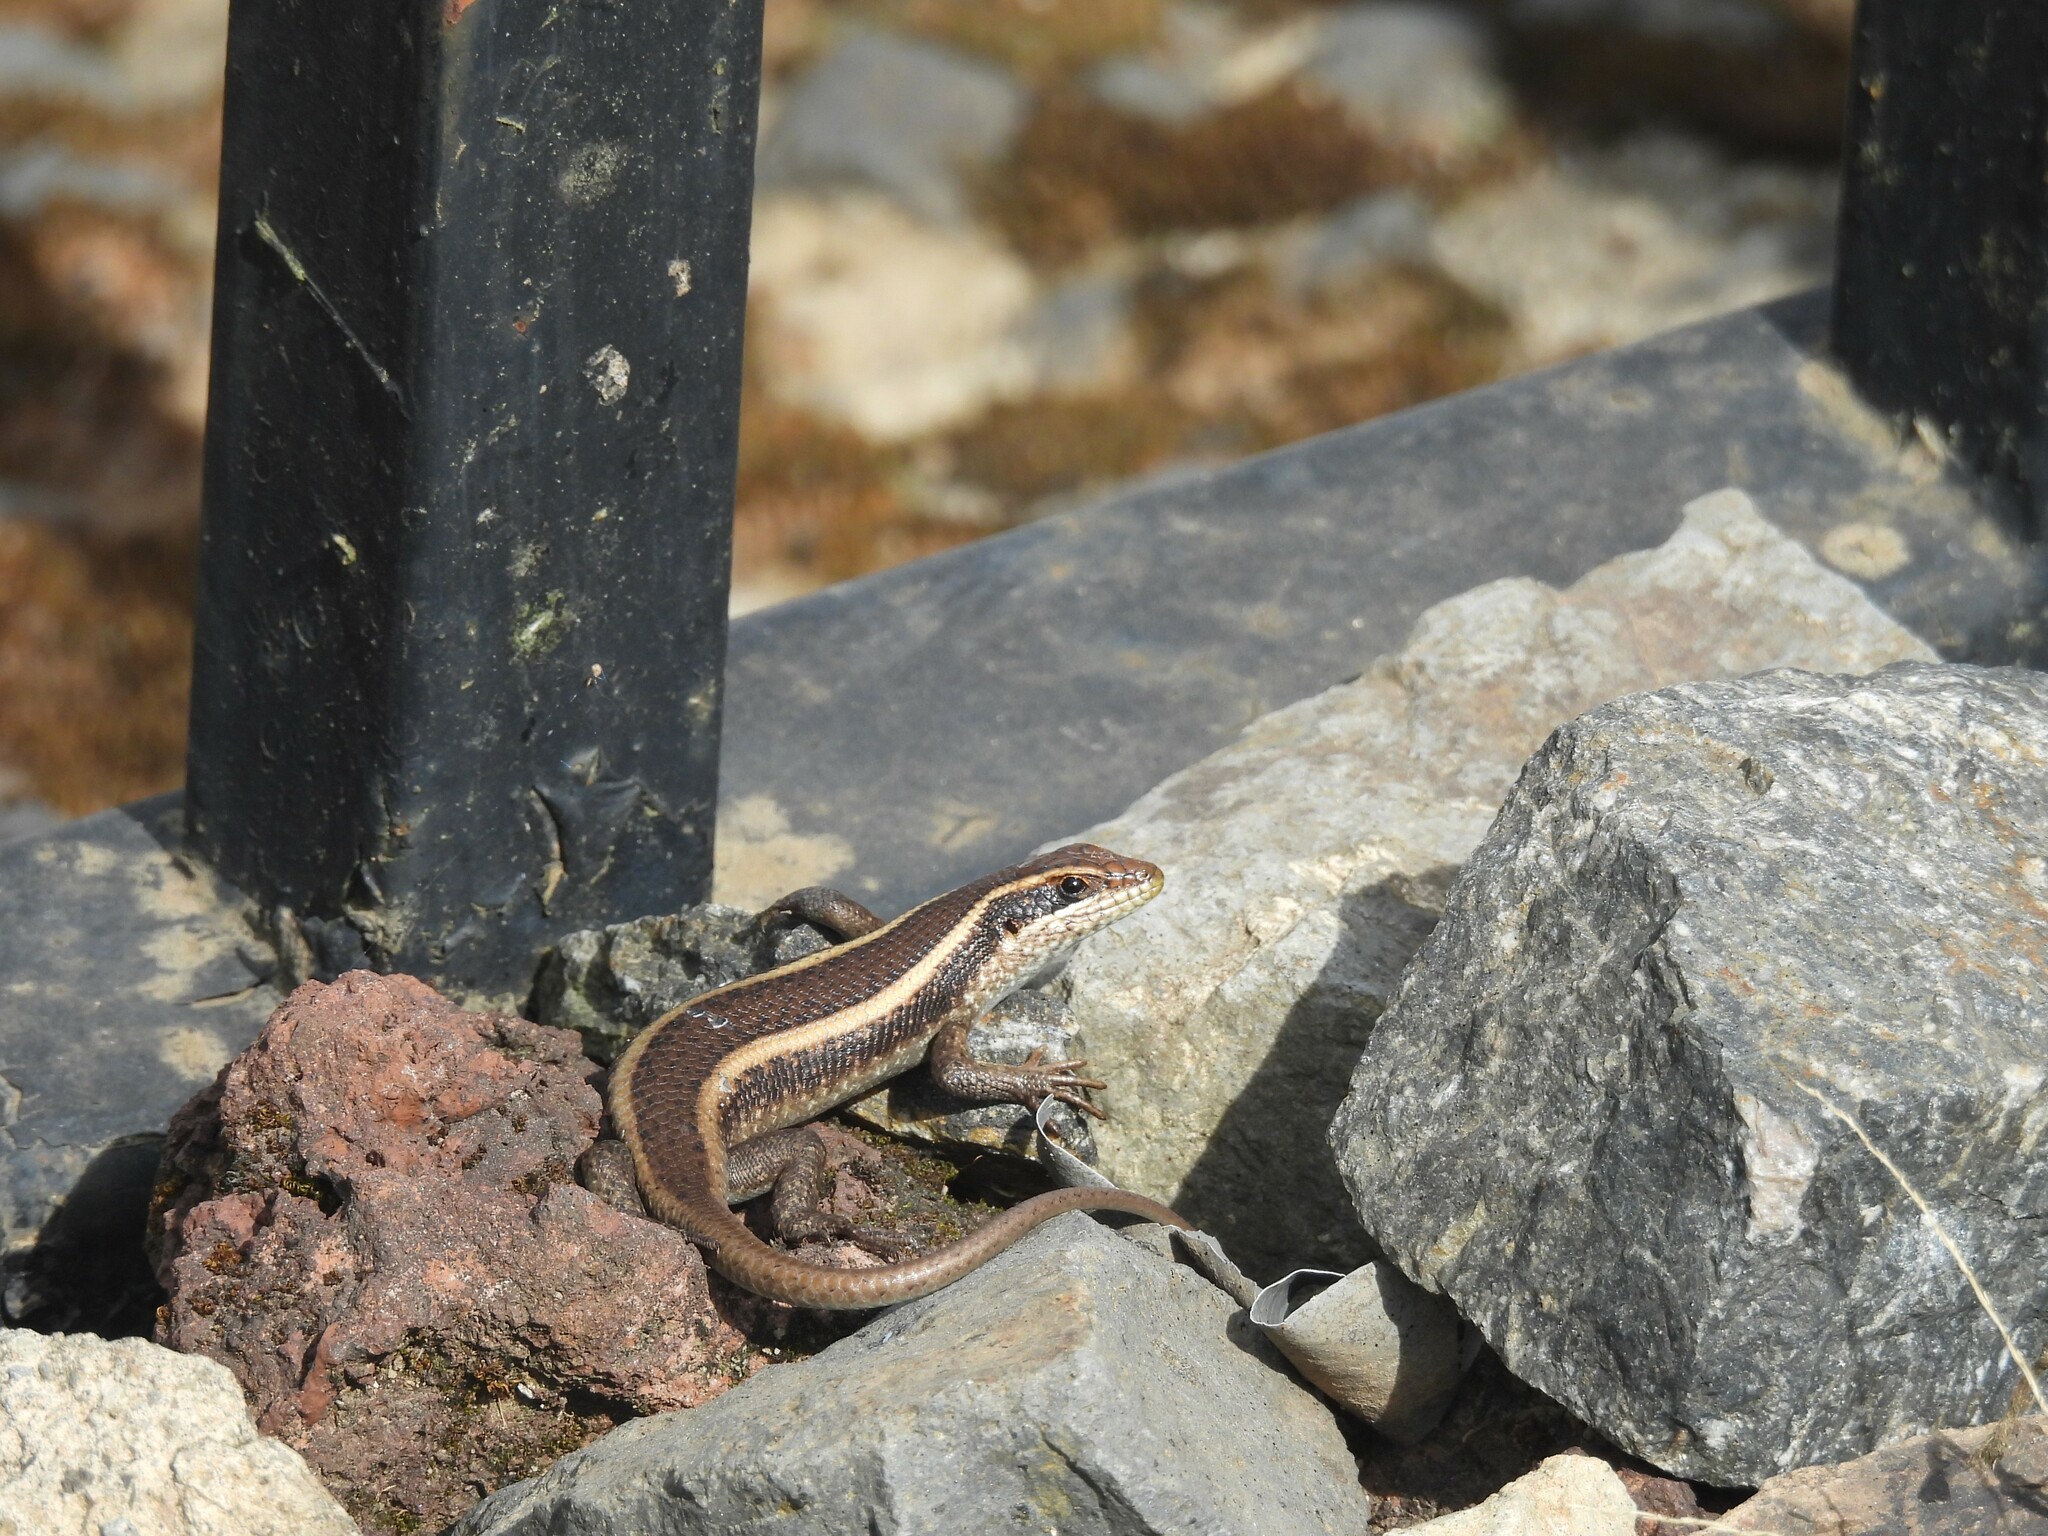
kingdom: Animalia
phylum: Chordata
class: Squamata
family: Scincidae
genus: Trachylepis
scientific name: Trachylepis striata
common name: African striped mabuya
